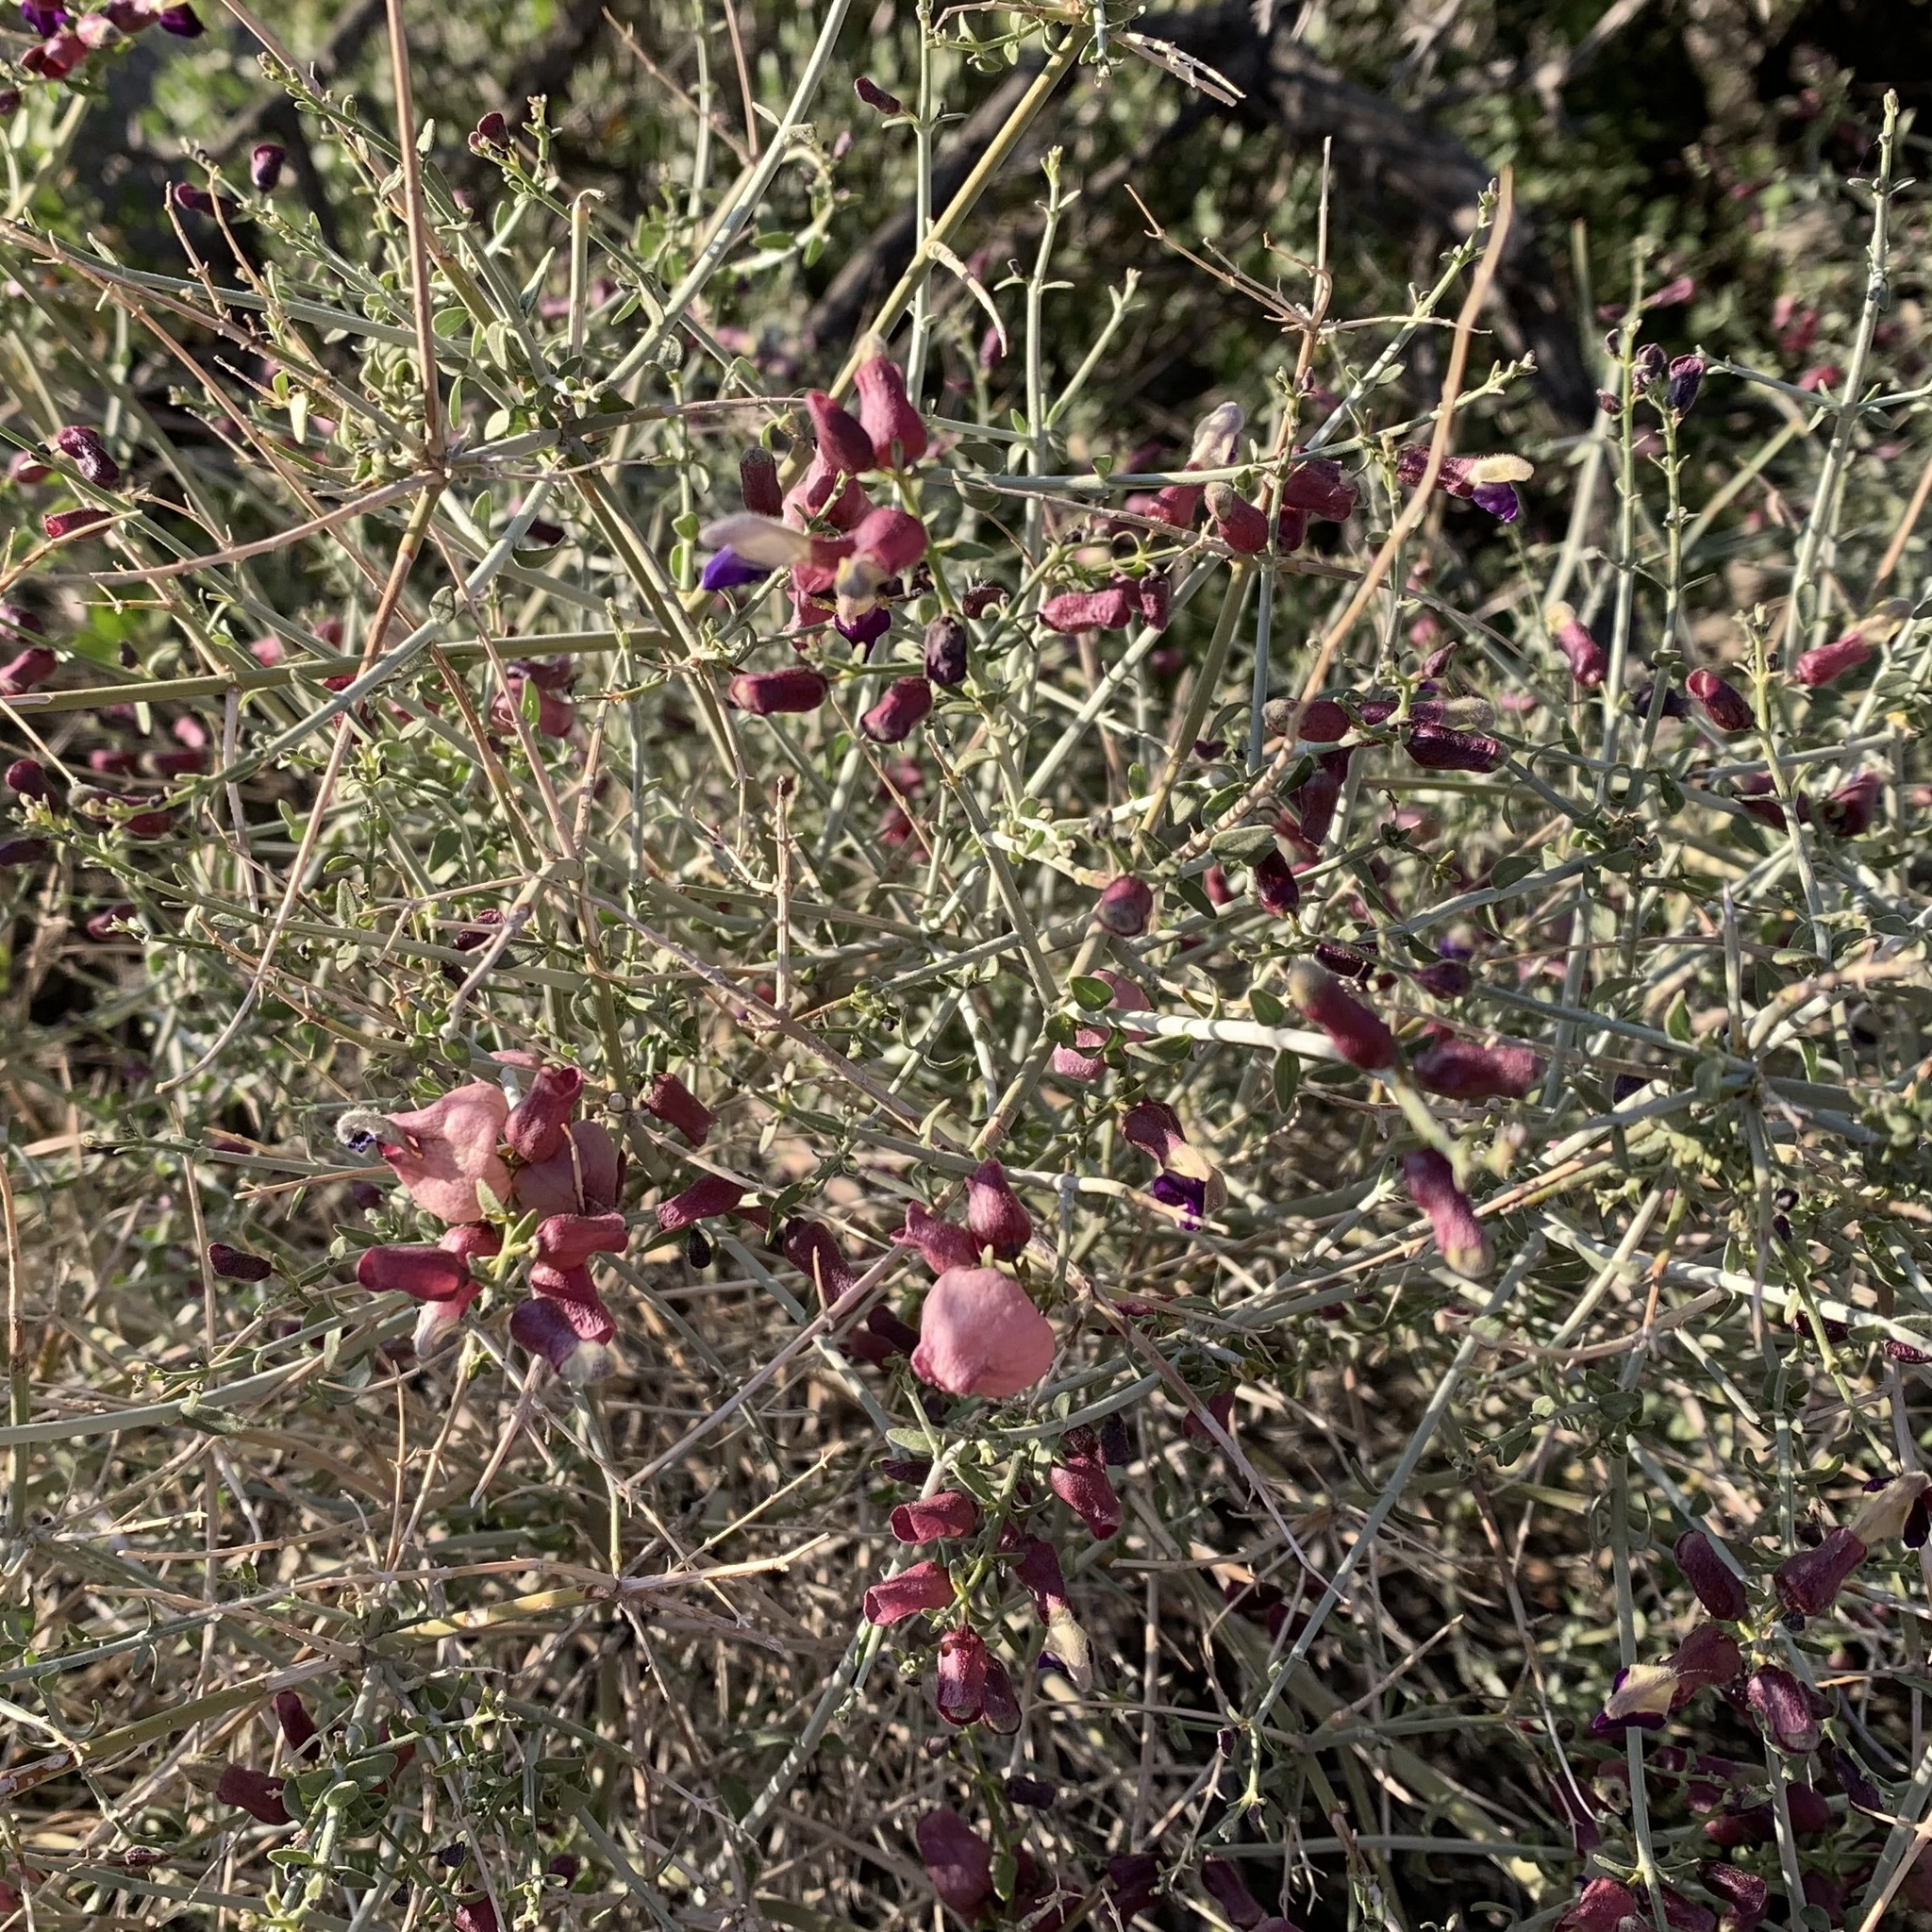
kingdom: Plantae
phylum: Tracheophyta
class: Magnoliopsida
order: Lamiales
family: Lamiaceae
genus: Scutellaria
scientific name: Scutellaria mexicana
